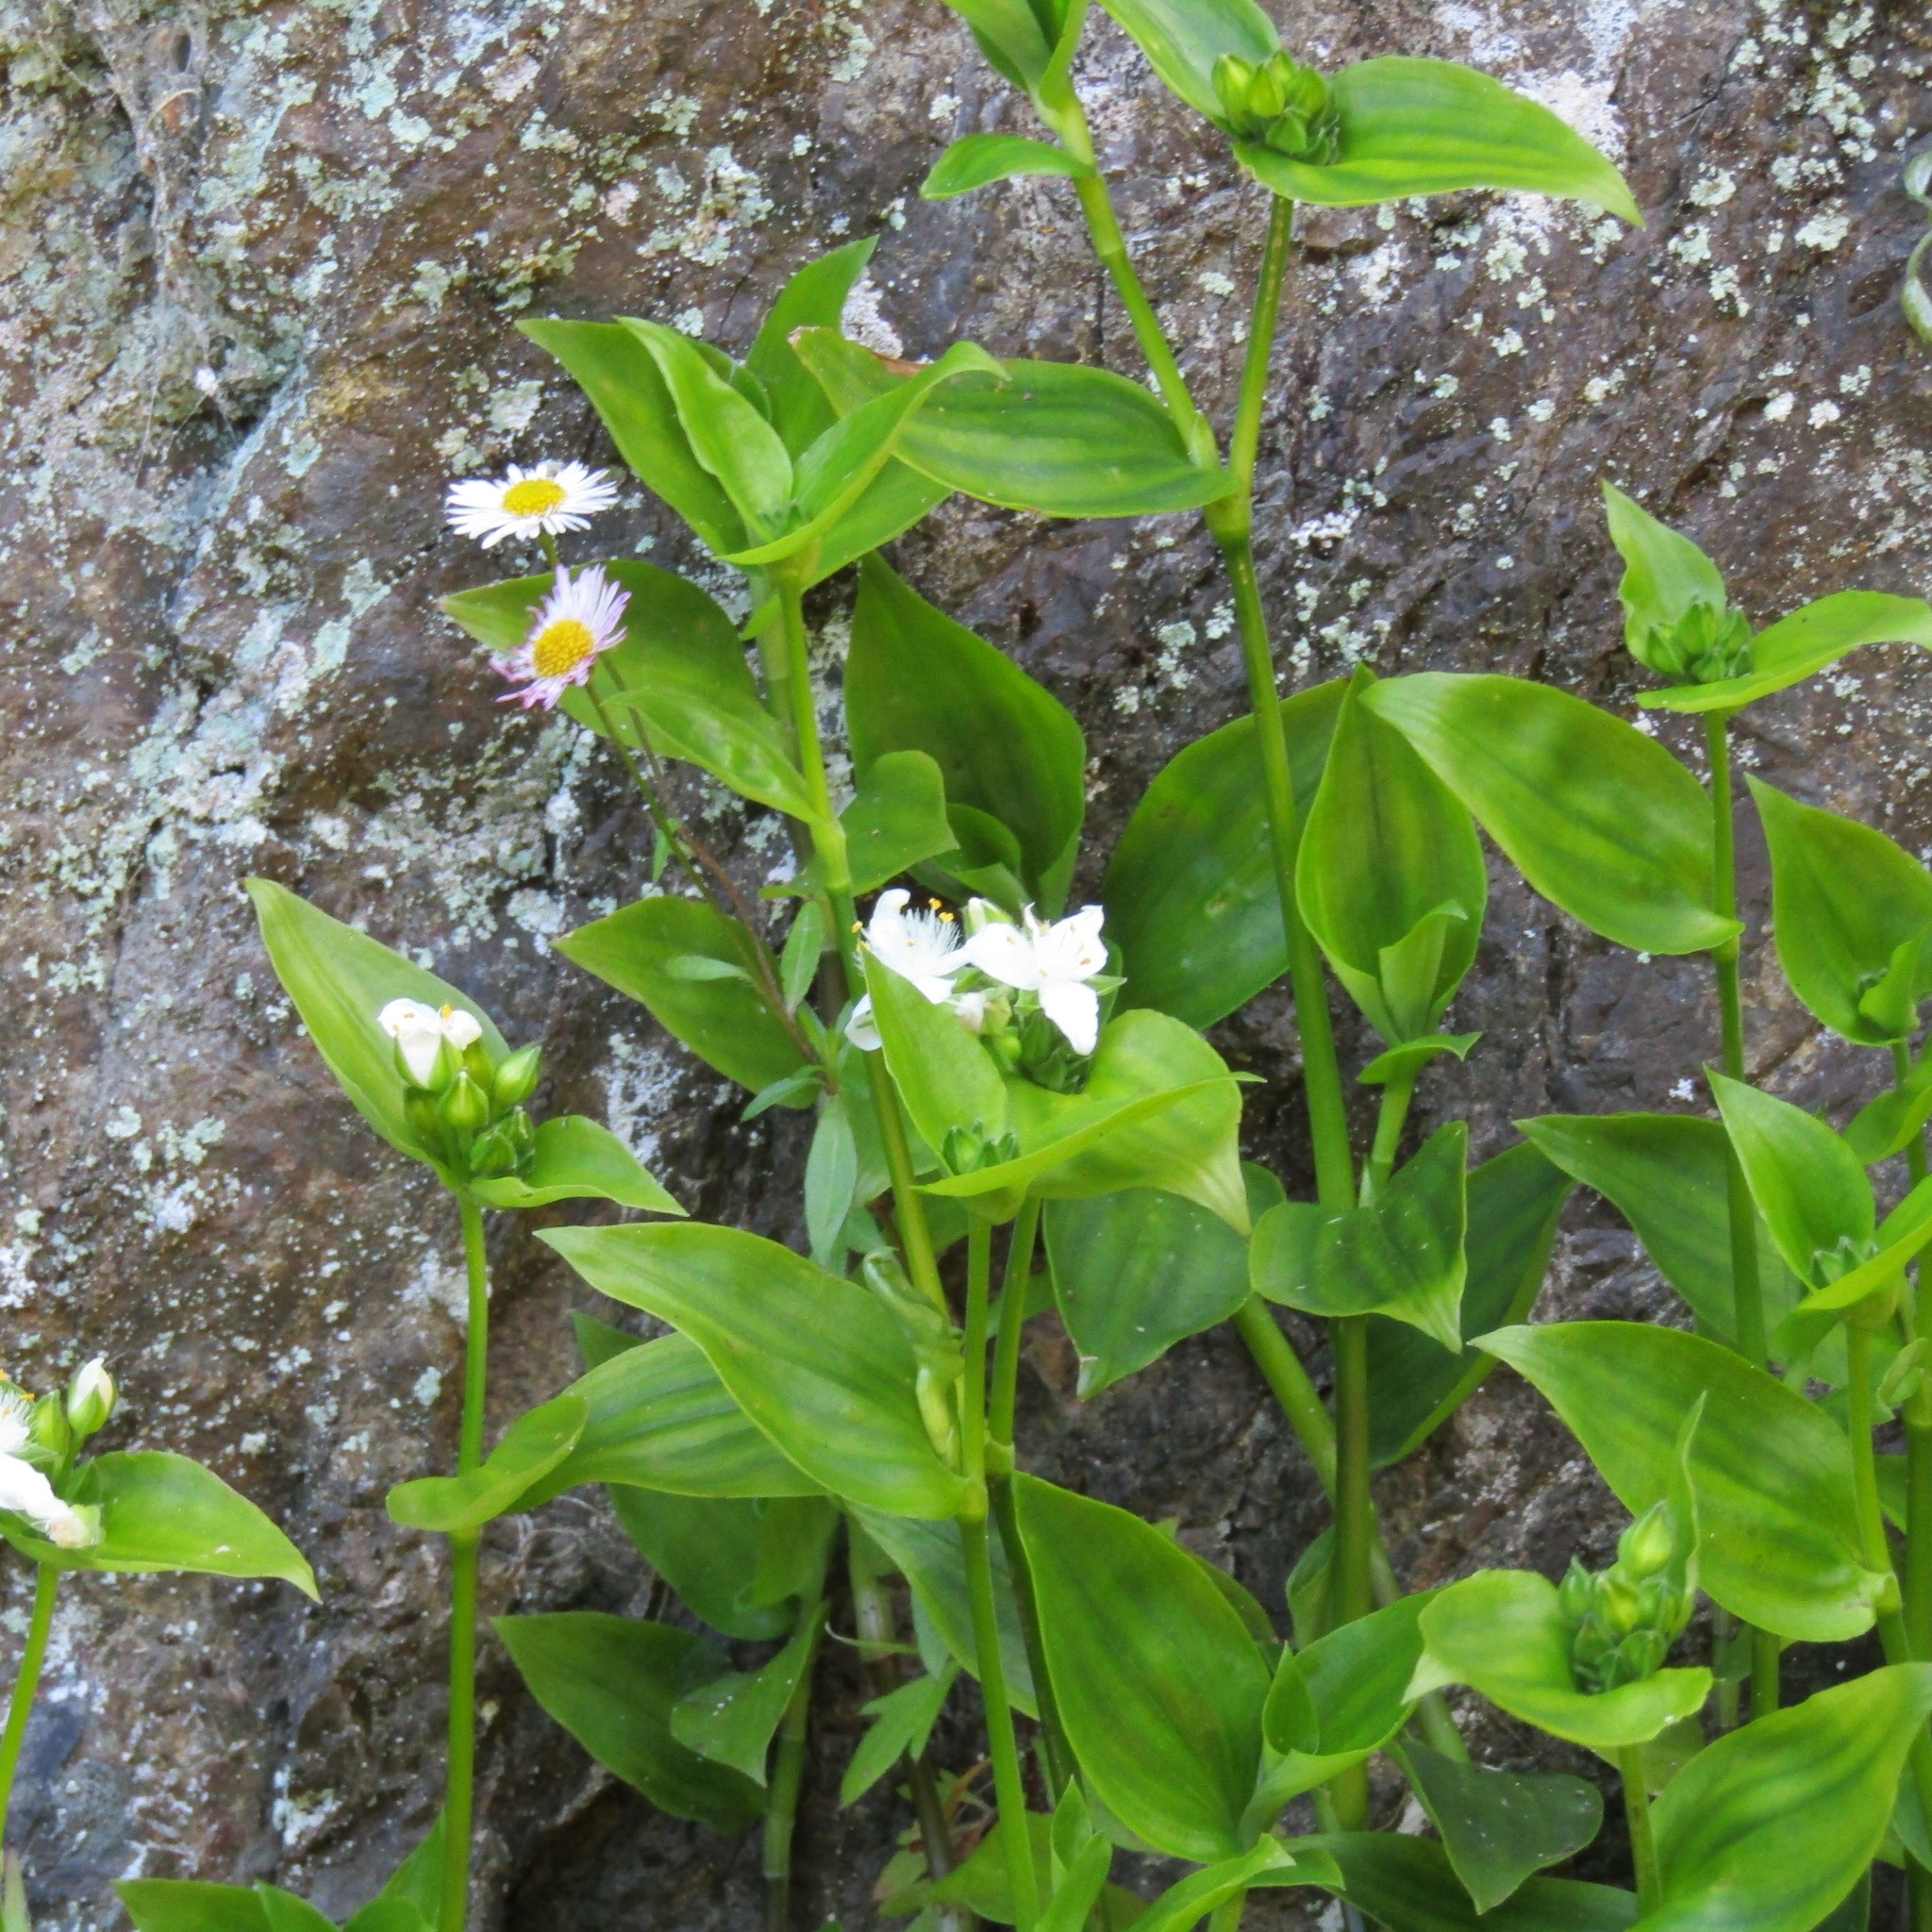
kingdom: Plantae
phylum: Tracheophyta
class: Liliopsida
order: Commelinales
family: Commelinaceae
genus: Tradescantia
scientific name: Tradescantia fluminensis
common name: Wandering-jew
